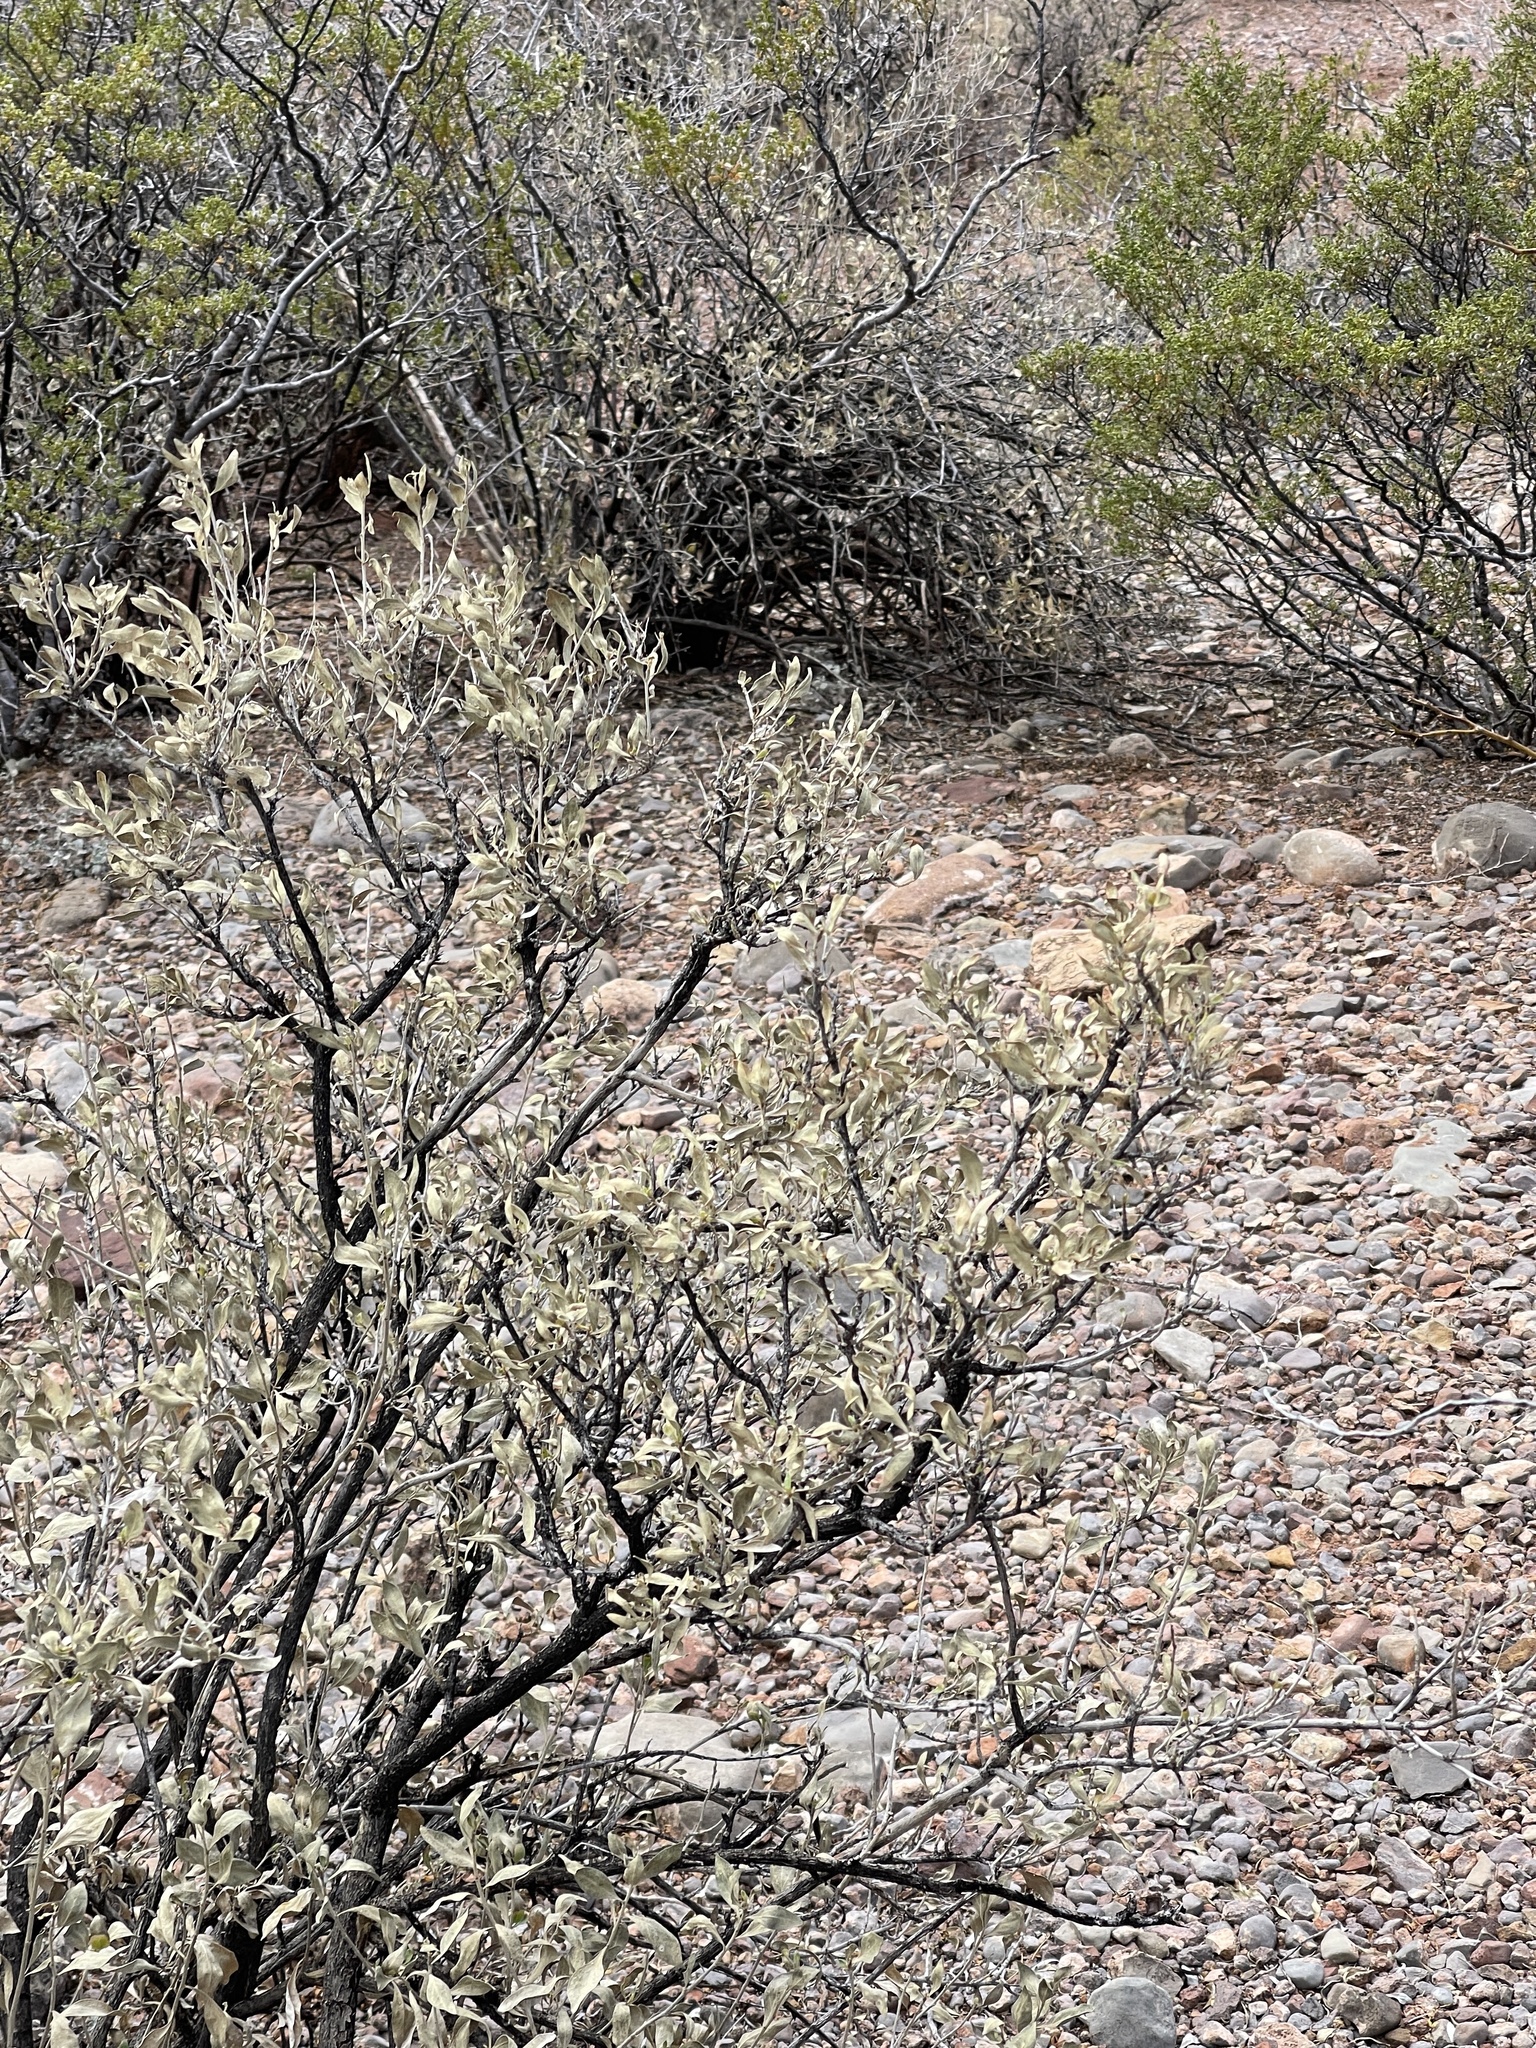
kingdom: Plantae
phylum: Tracheophyta
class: Magnoliopsida
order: Asterales
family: Asteraceae
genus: Flourensia
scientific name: Flourensia cernua
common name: Varnishbush
